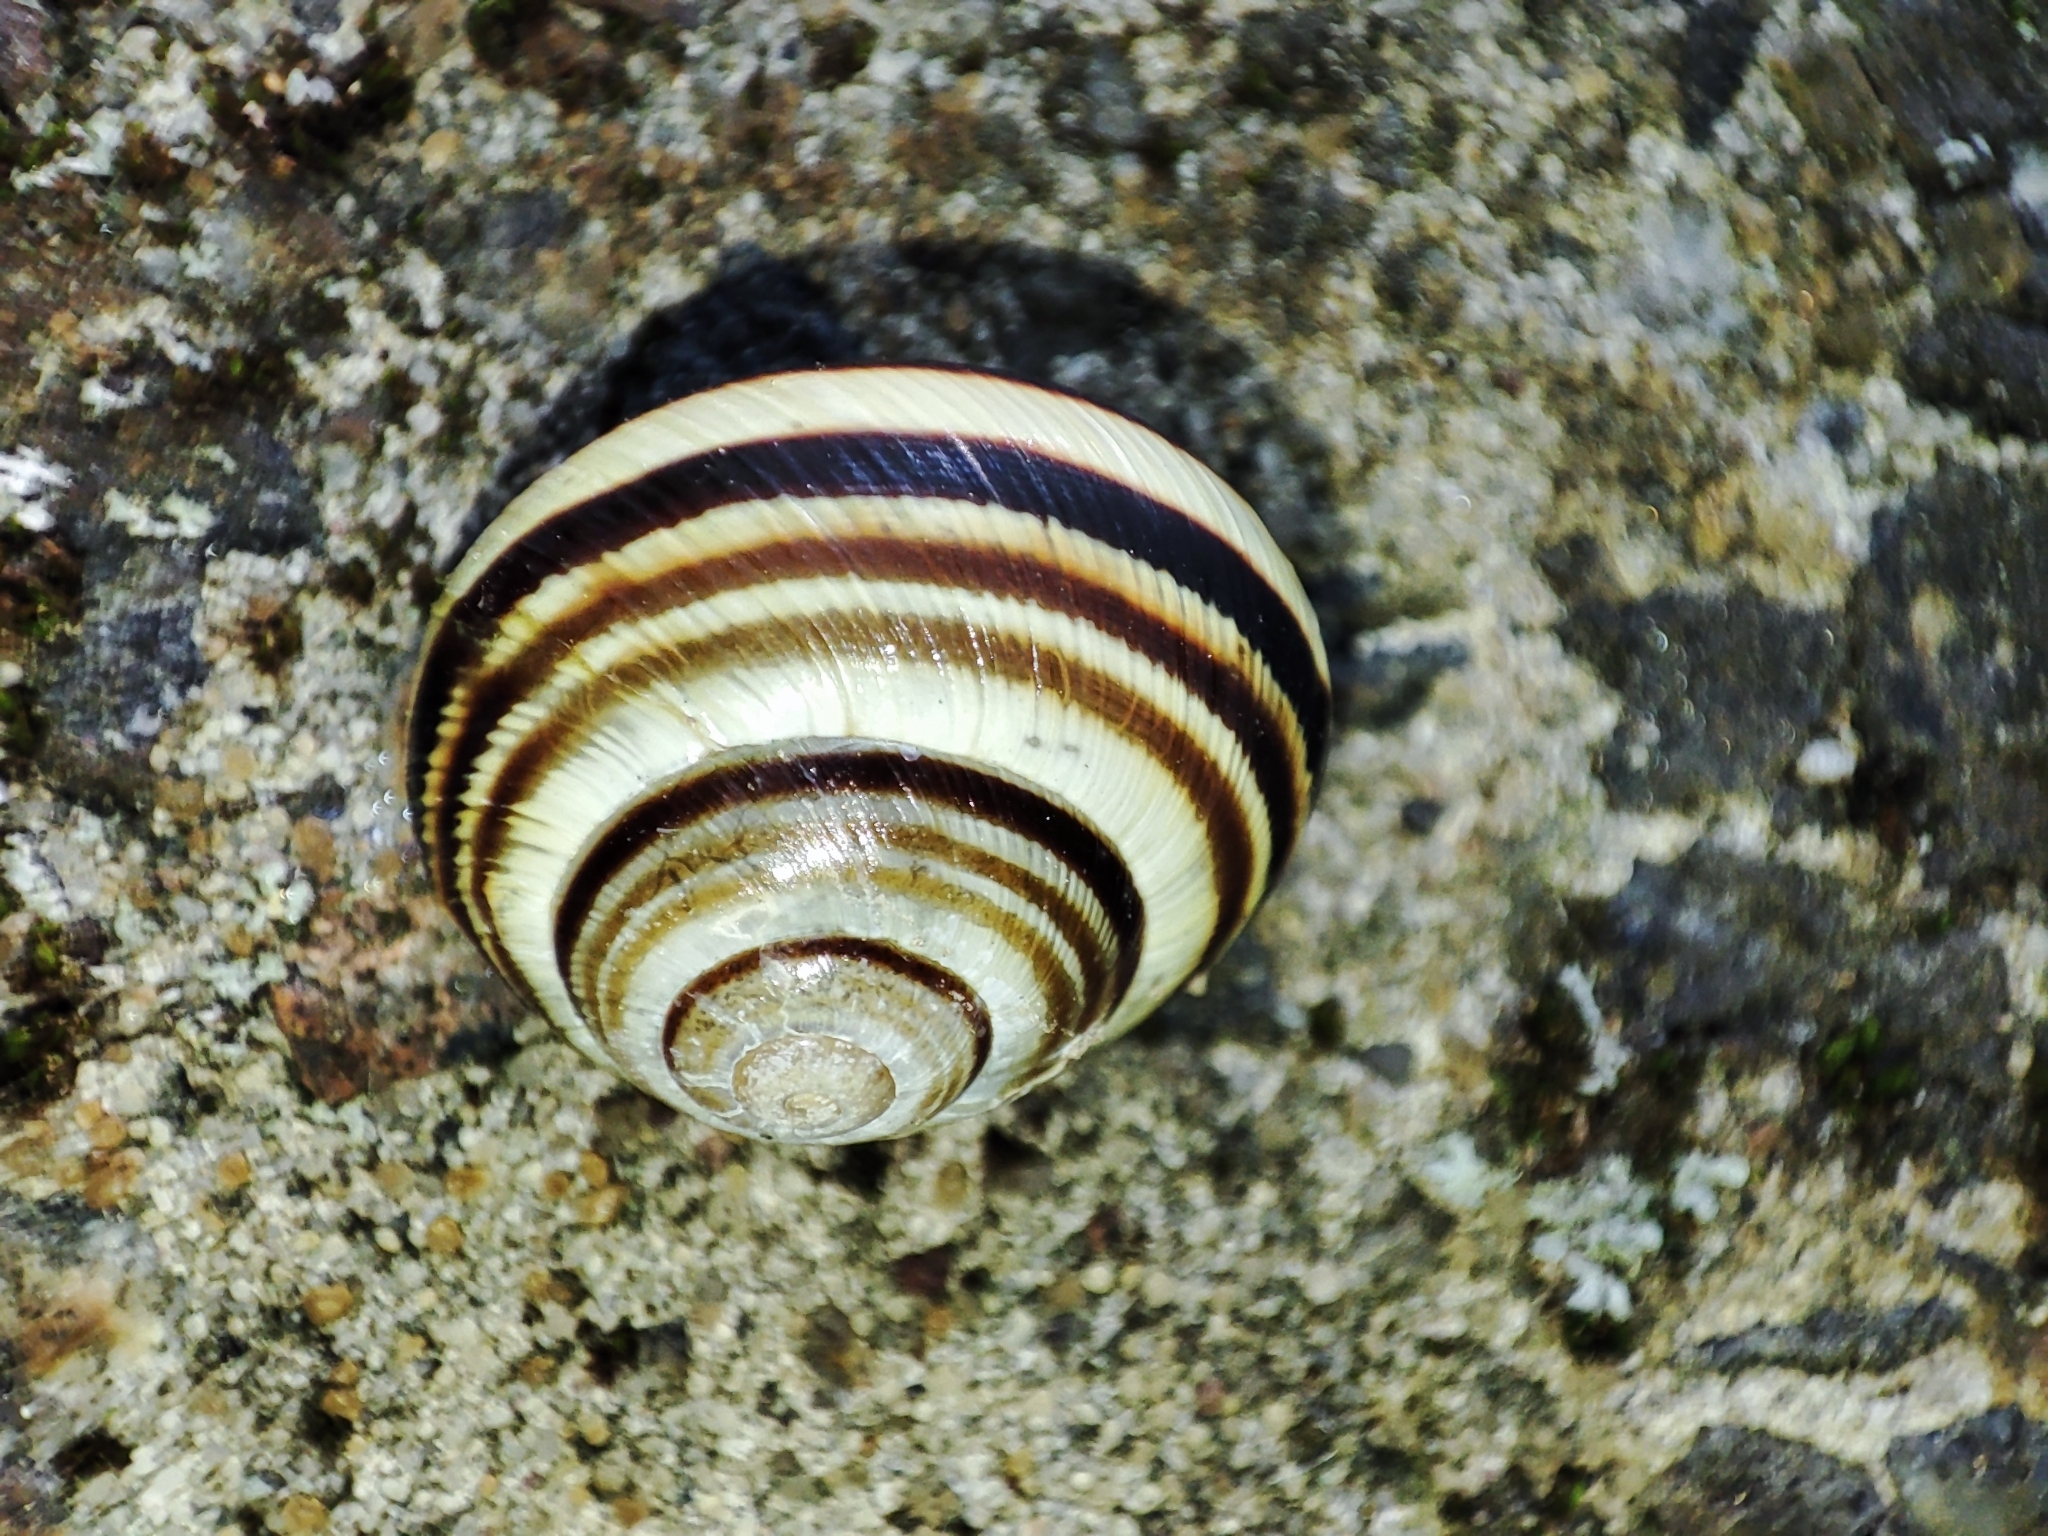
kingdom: Animalia
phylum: Mollusca
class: Gastropoda
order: Stylommatophora
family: Helicidae
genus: Caucasotachea
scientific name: Caucasotachea vindobonensis
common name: European helicid land snail
